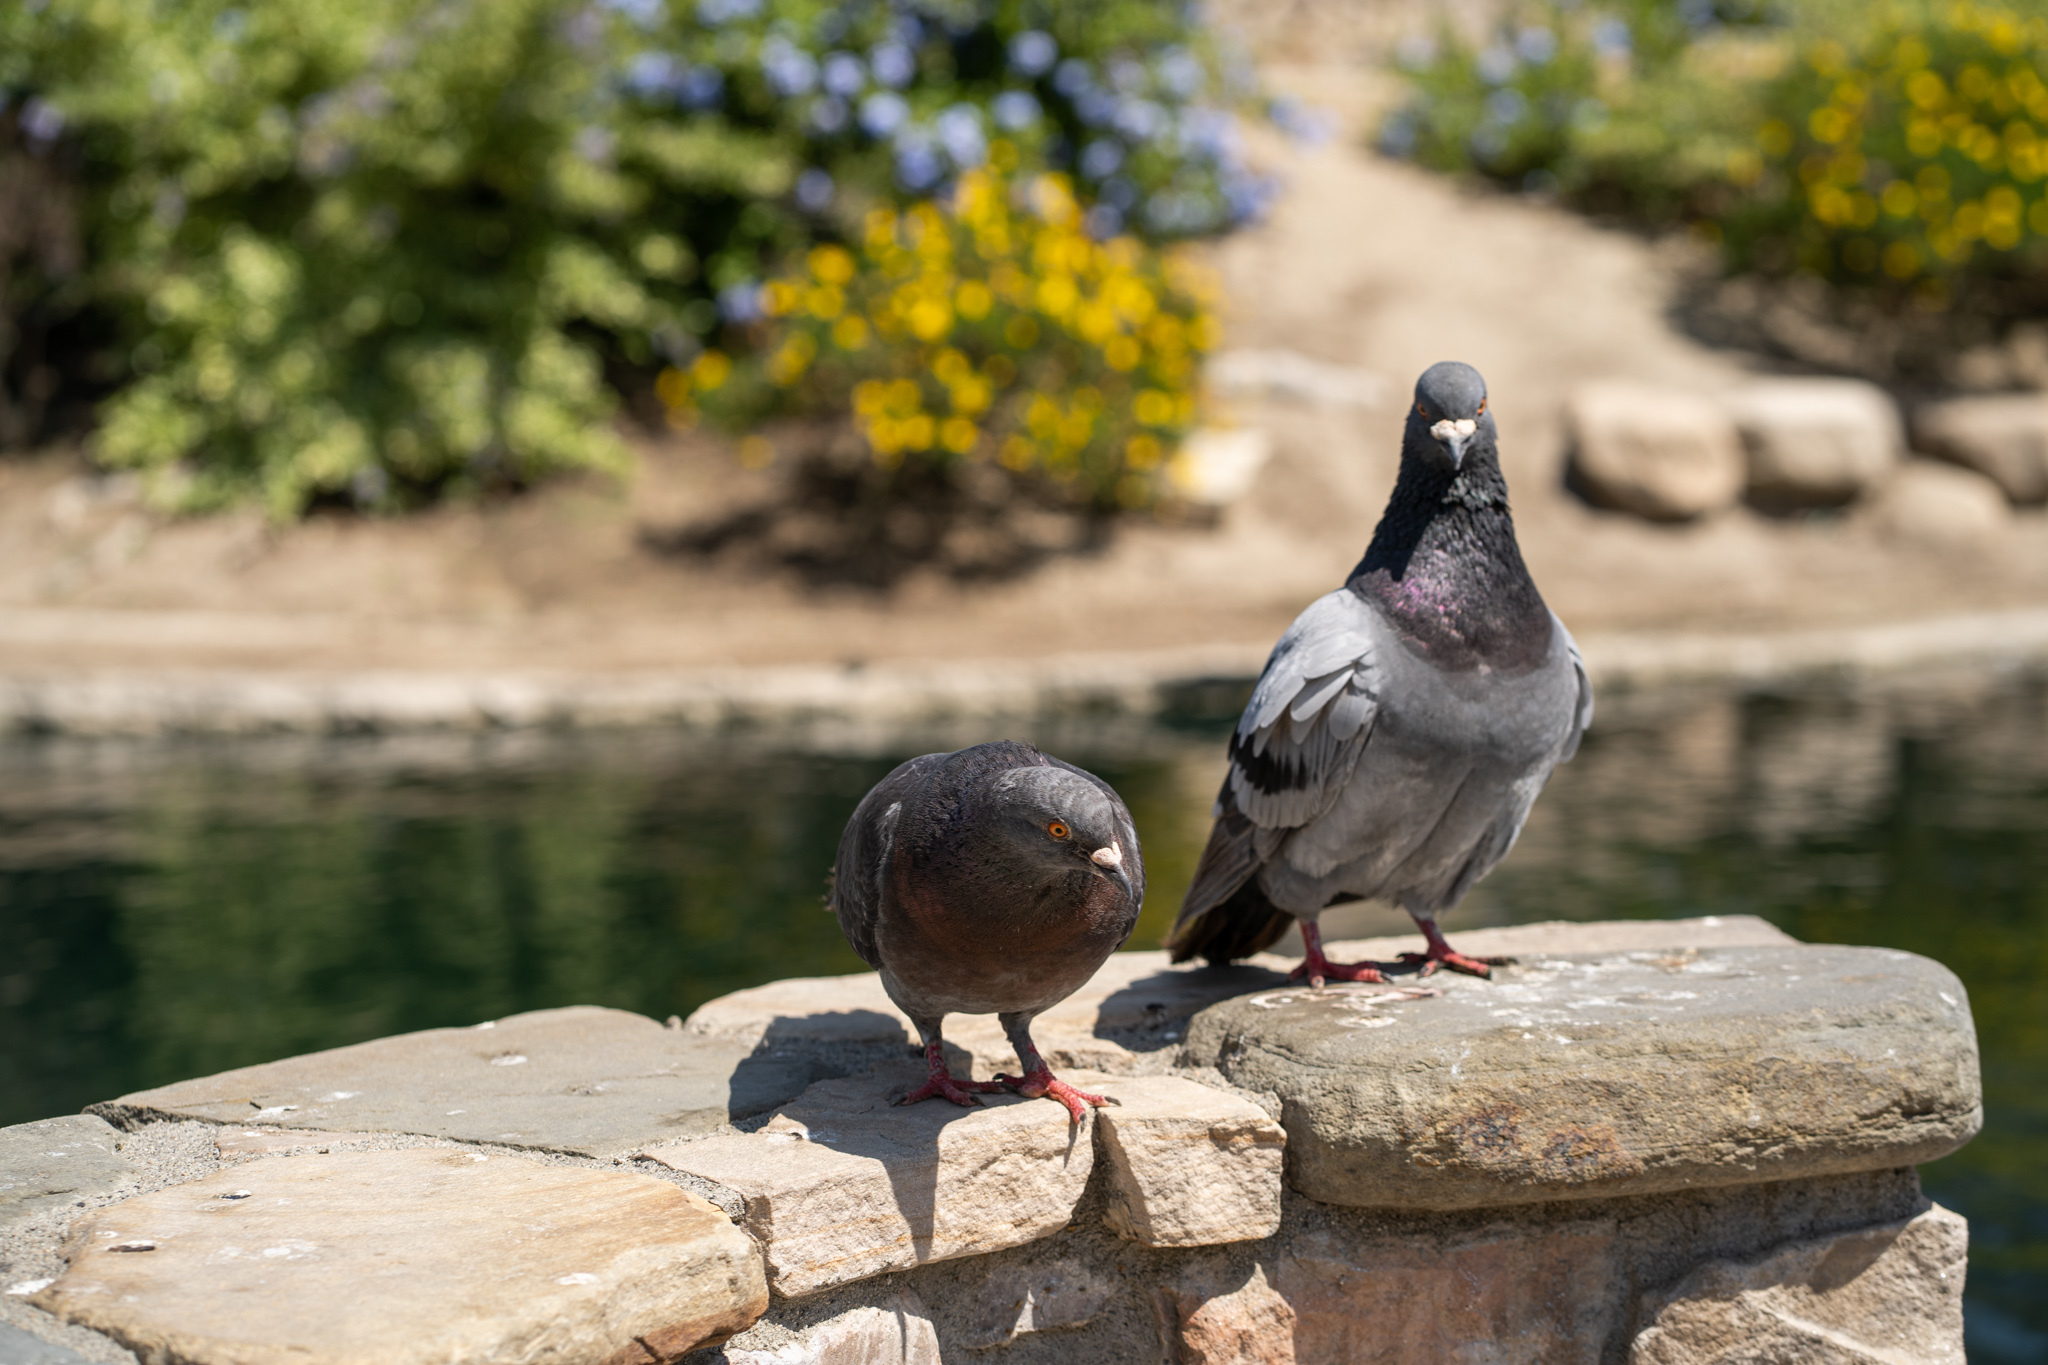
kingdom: Animalia
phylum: Chordata
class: Aves
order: Columbiformes
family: Columbidae
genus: Columba
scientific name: Columba livia
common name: Rock pigeon
